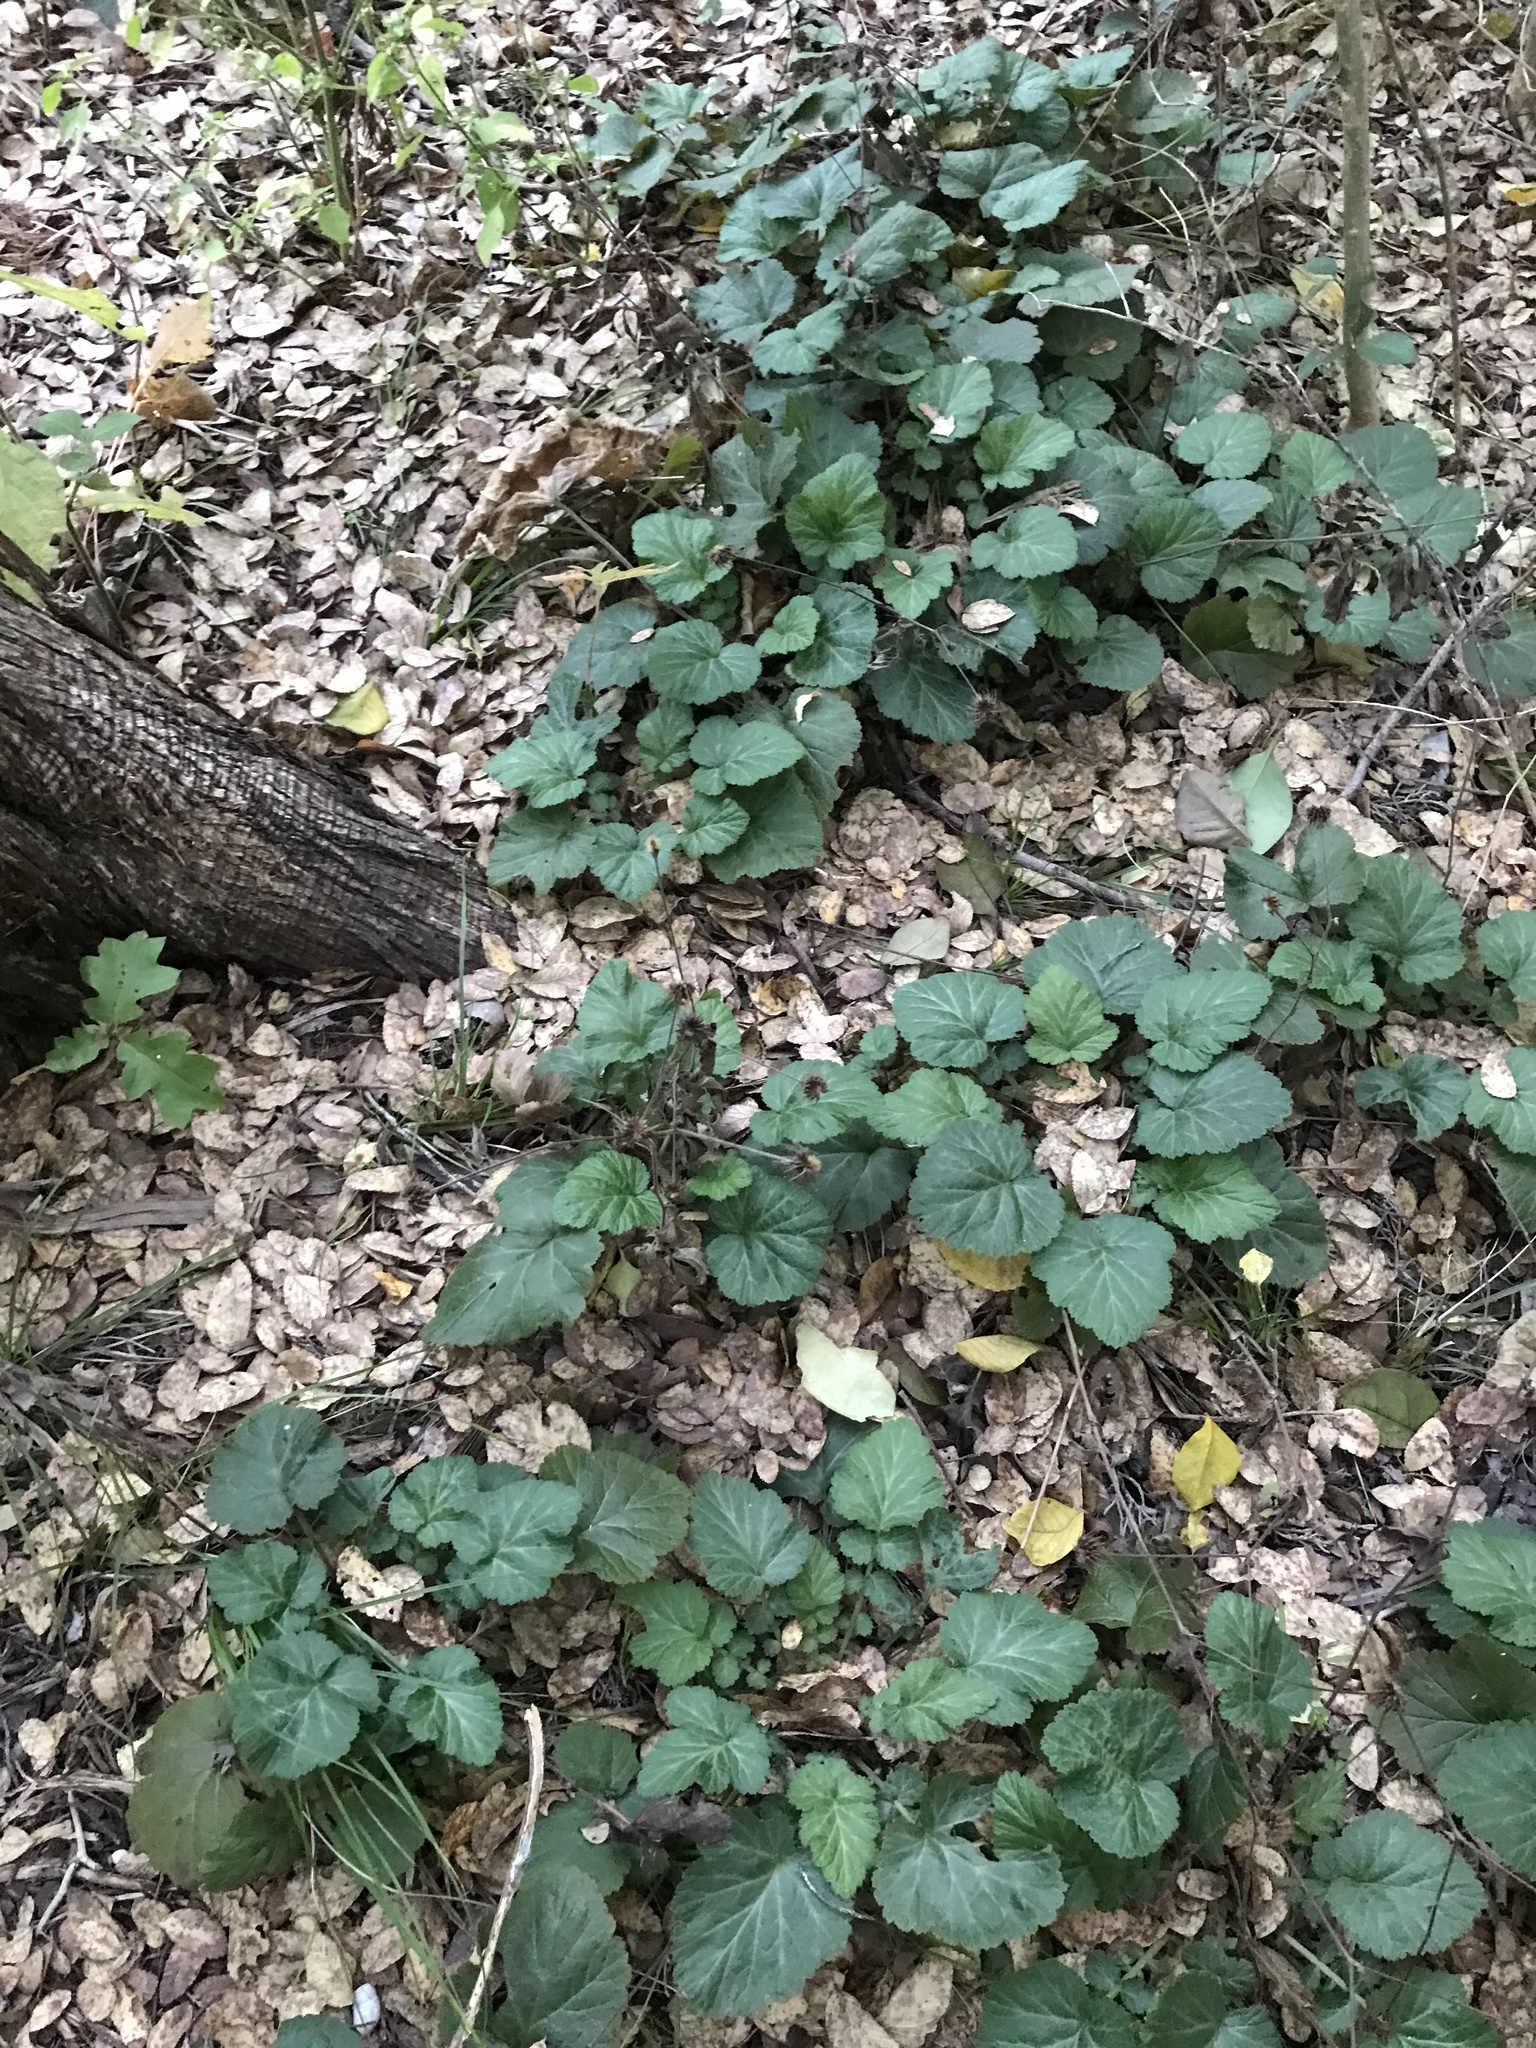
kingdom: Plantae
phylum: Tracheophyta
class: Magnoliopsida
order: Rosales
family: Rosaceae
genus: Geum
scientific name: Geum canadense
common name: White avens
